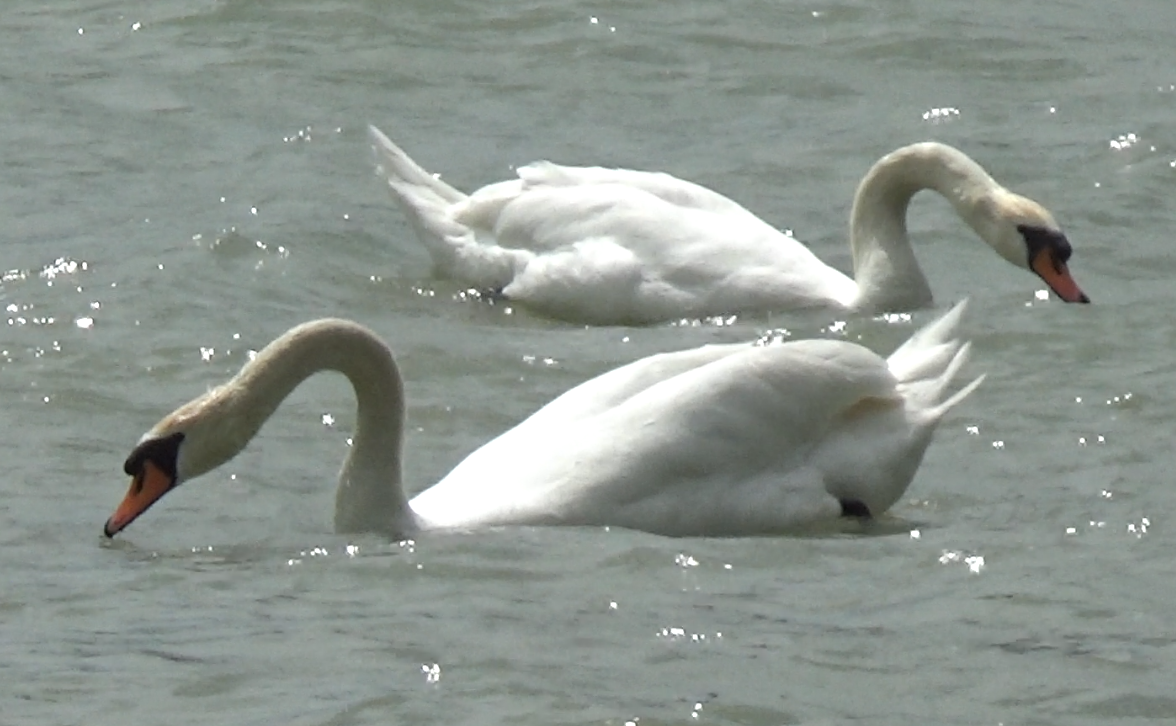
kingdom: Animalia
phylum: Chordata
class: Aves
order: Anseriformes
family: Anatidae
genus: Cygnus
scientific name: Cygnus olor
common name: Mute swan
